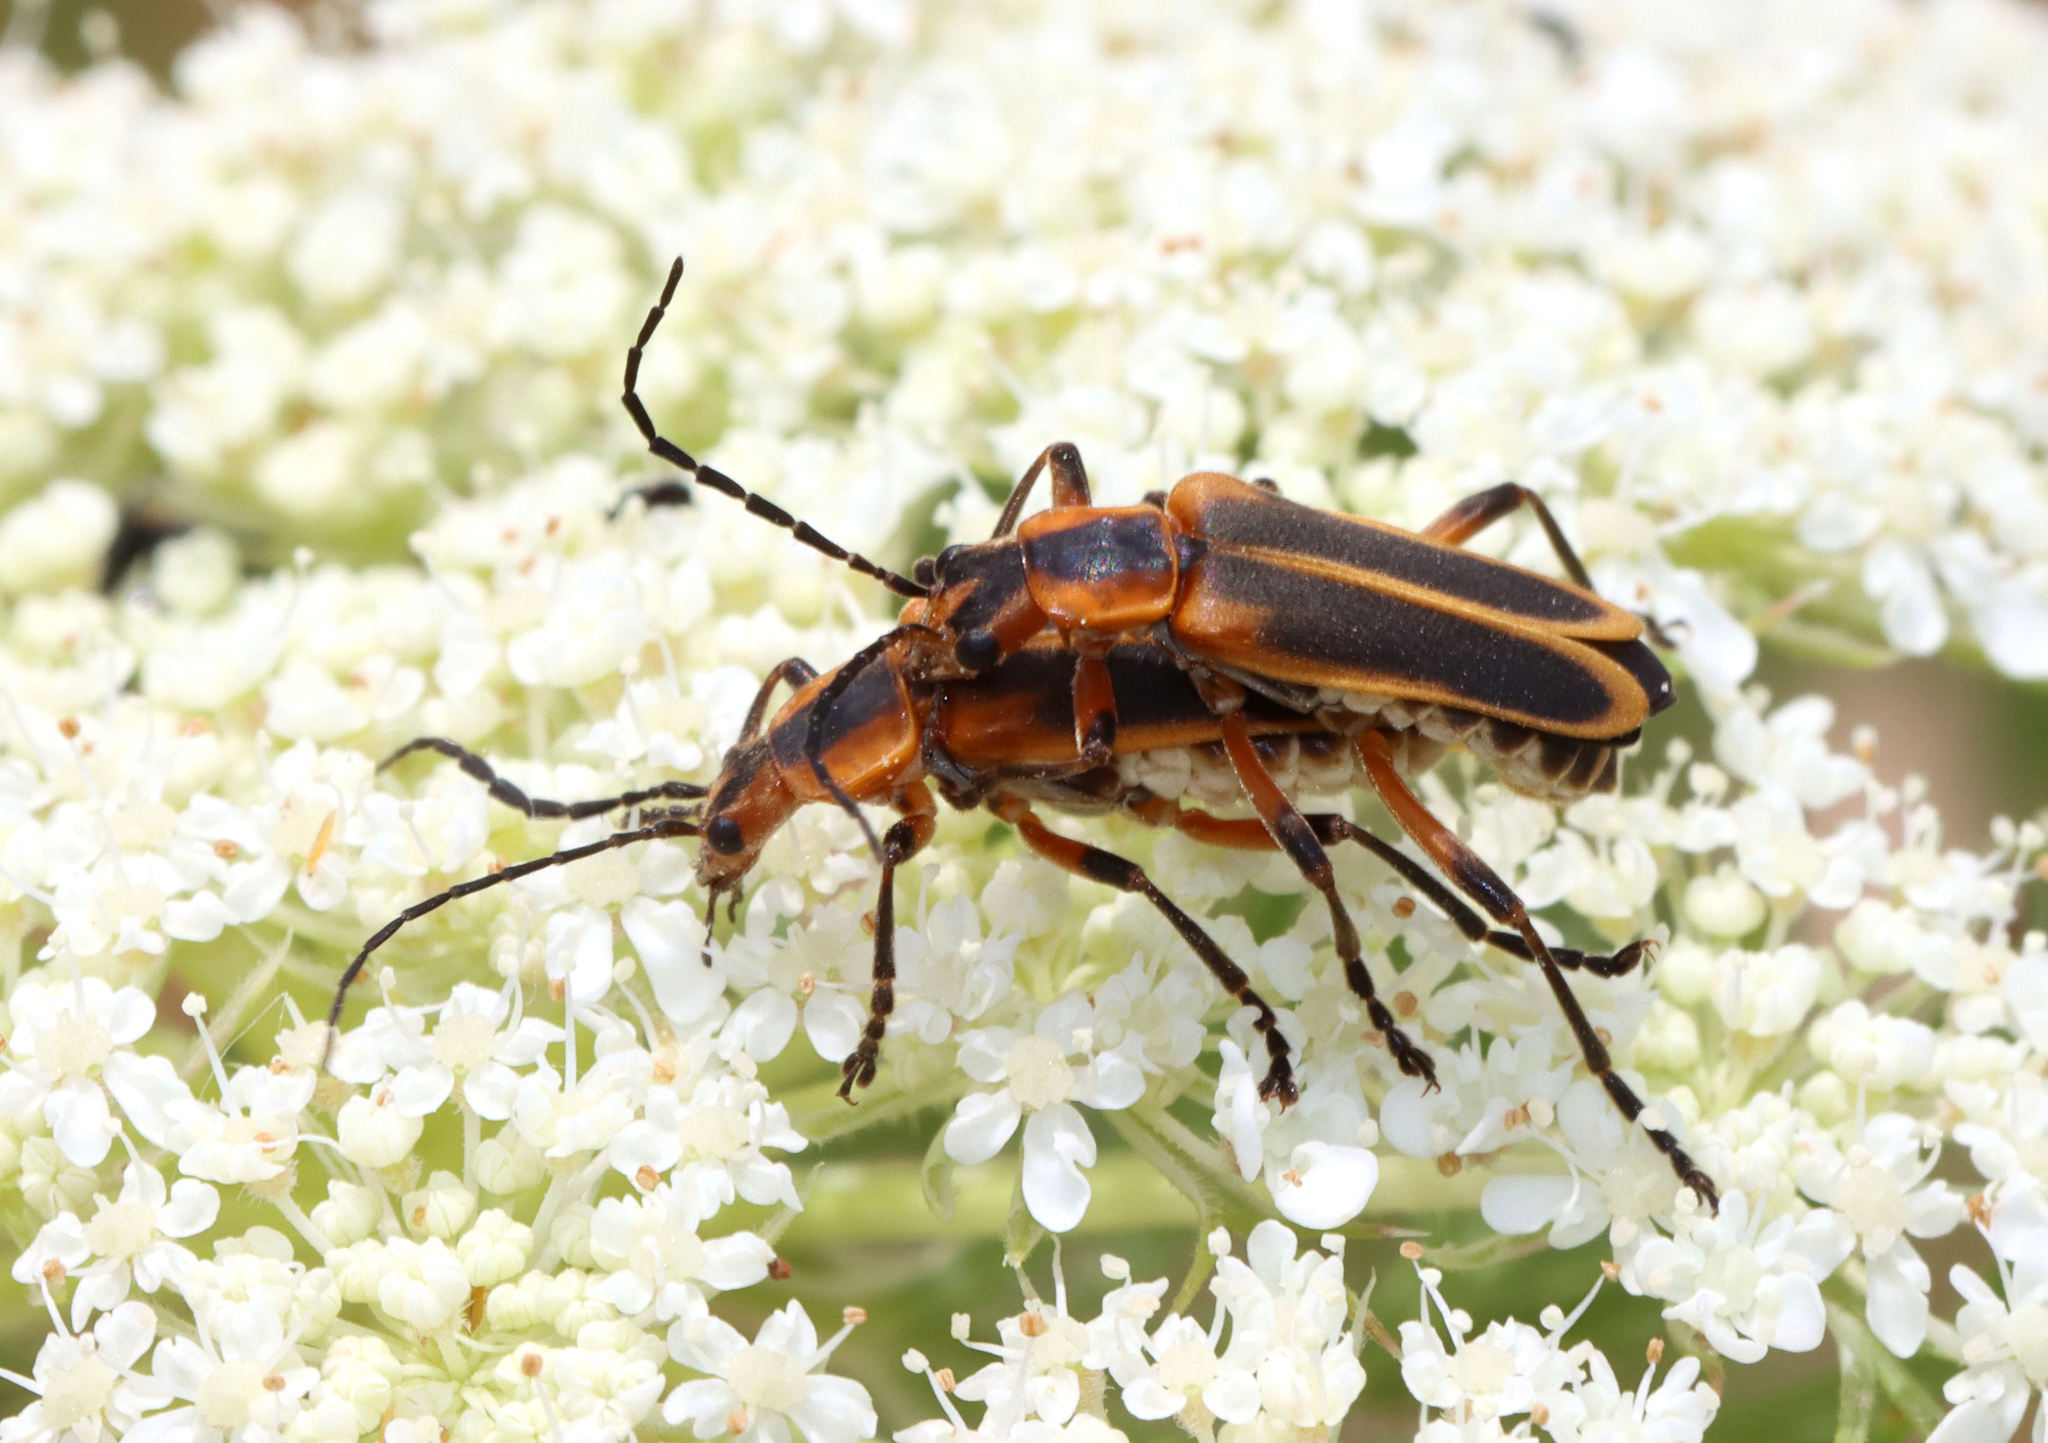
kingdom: Animalia
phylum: Arthropoda
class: Insecta
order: Coleoptera
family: Cantharidae
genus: Chauliognathus
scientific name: Chauliognathus marginatus
